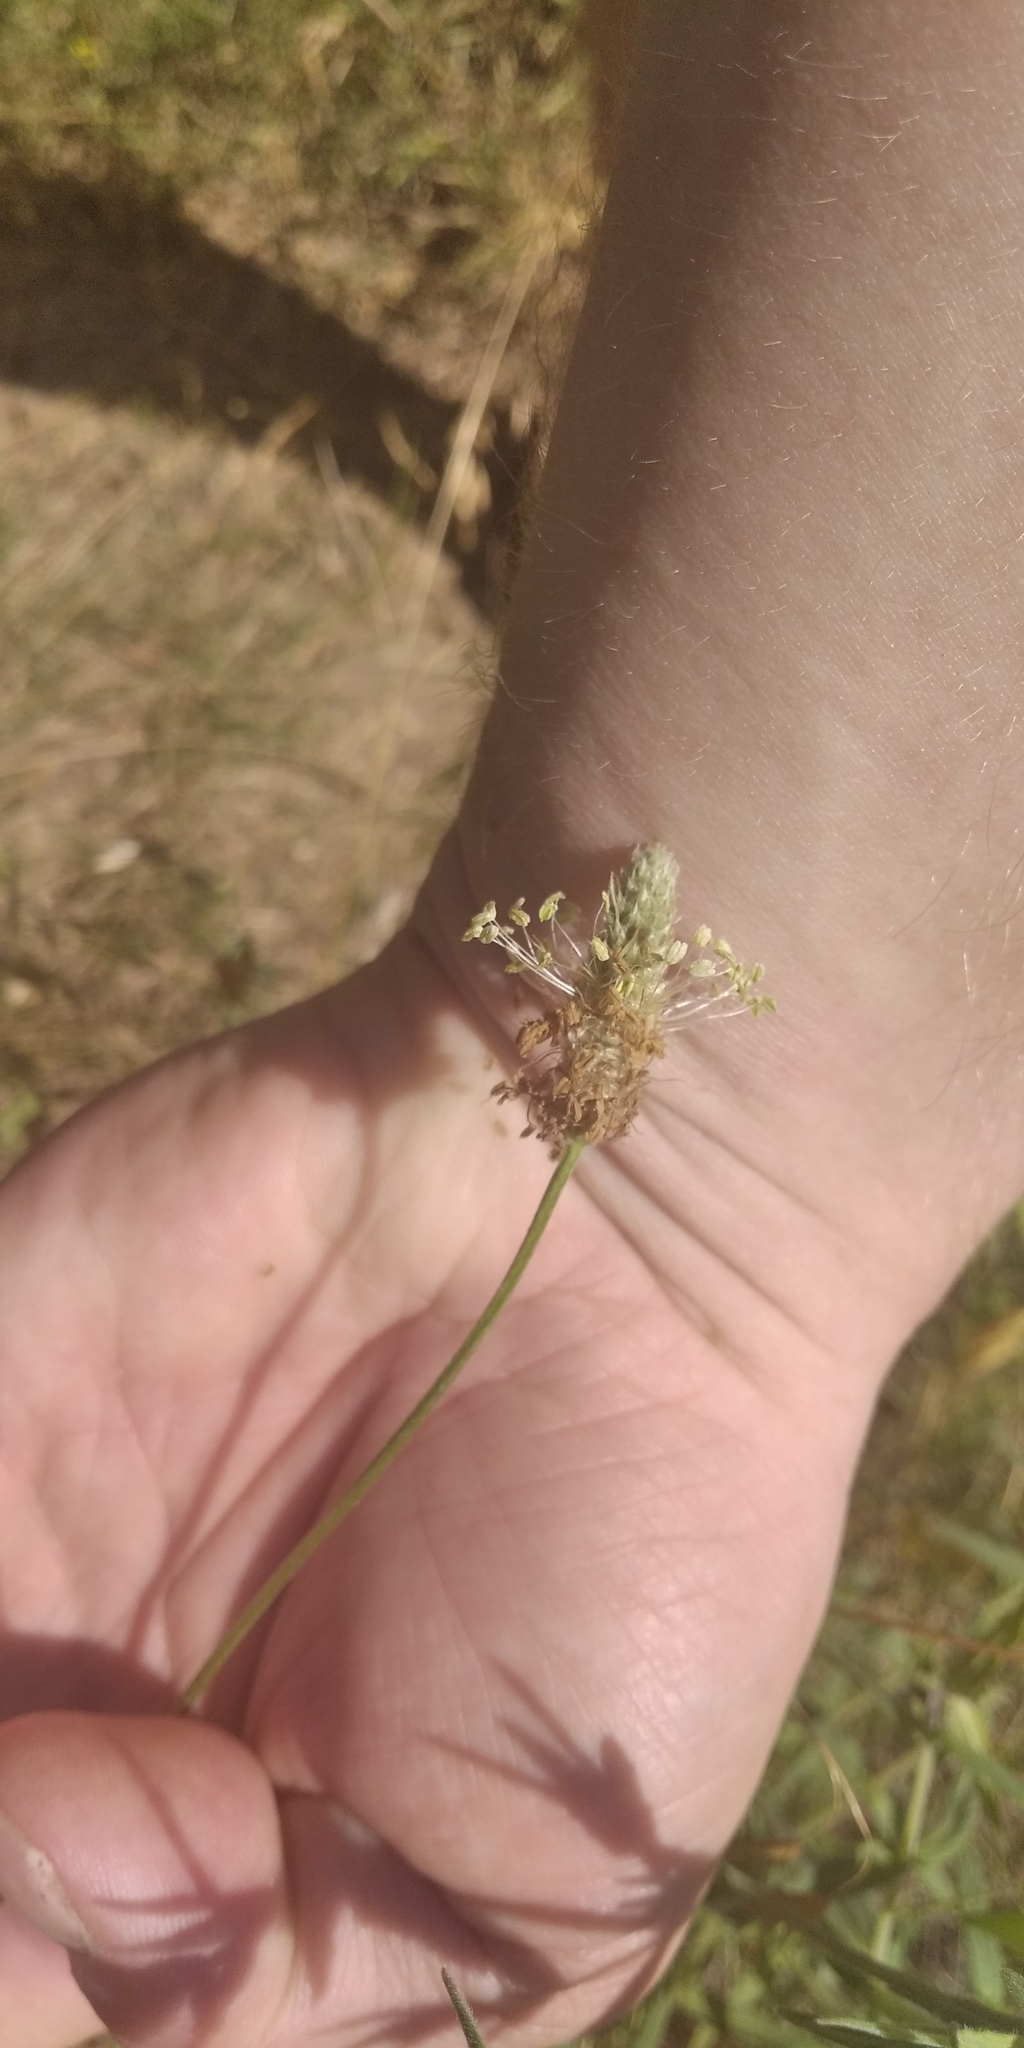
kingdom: Plantae
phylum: Tracheophyta
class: Magnoliopsida
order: Lamiales
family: Plantaginaceae
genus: Plantago
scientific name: Plantago lanceolata
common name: Ribwort plantain
